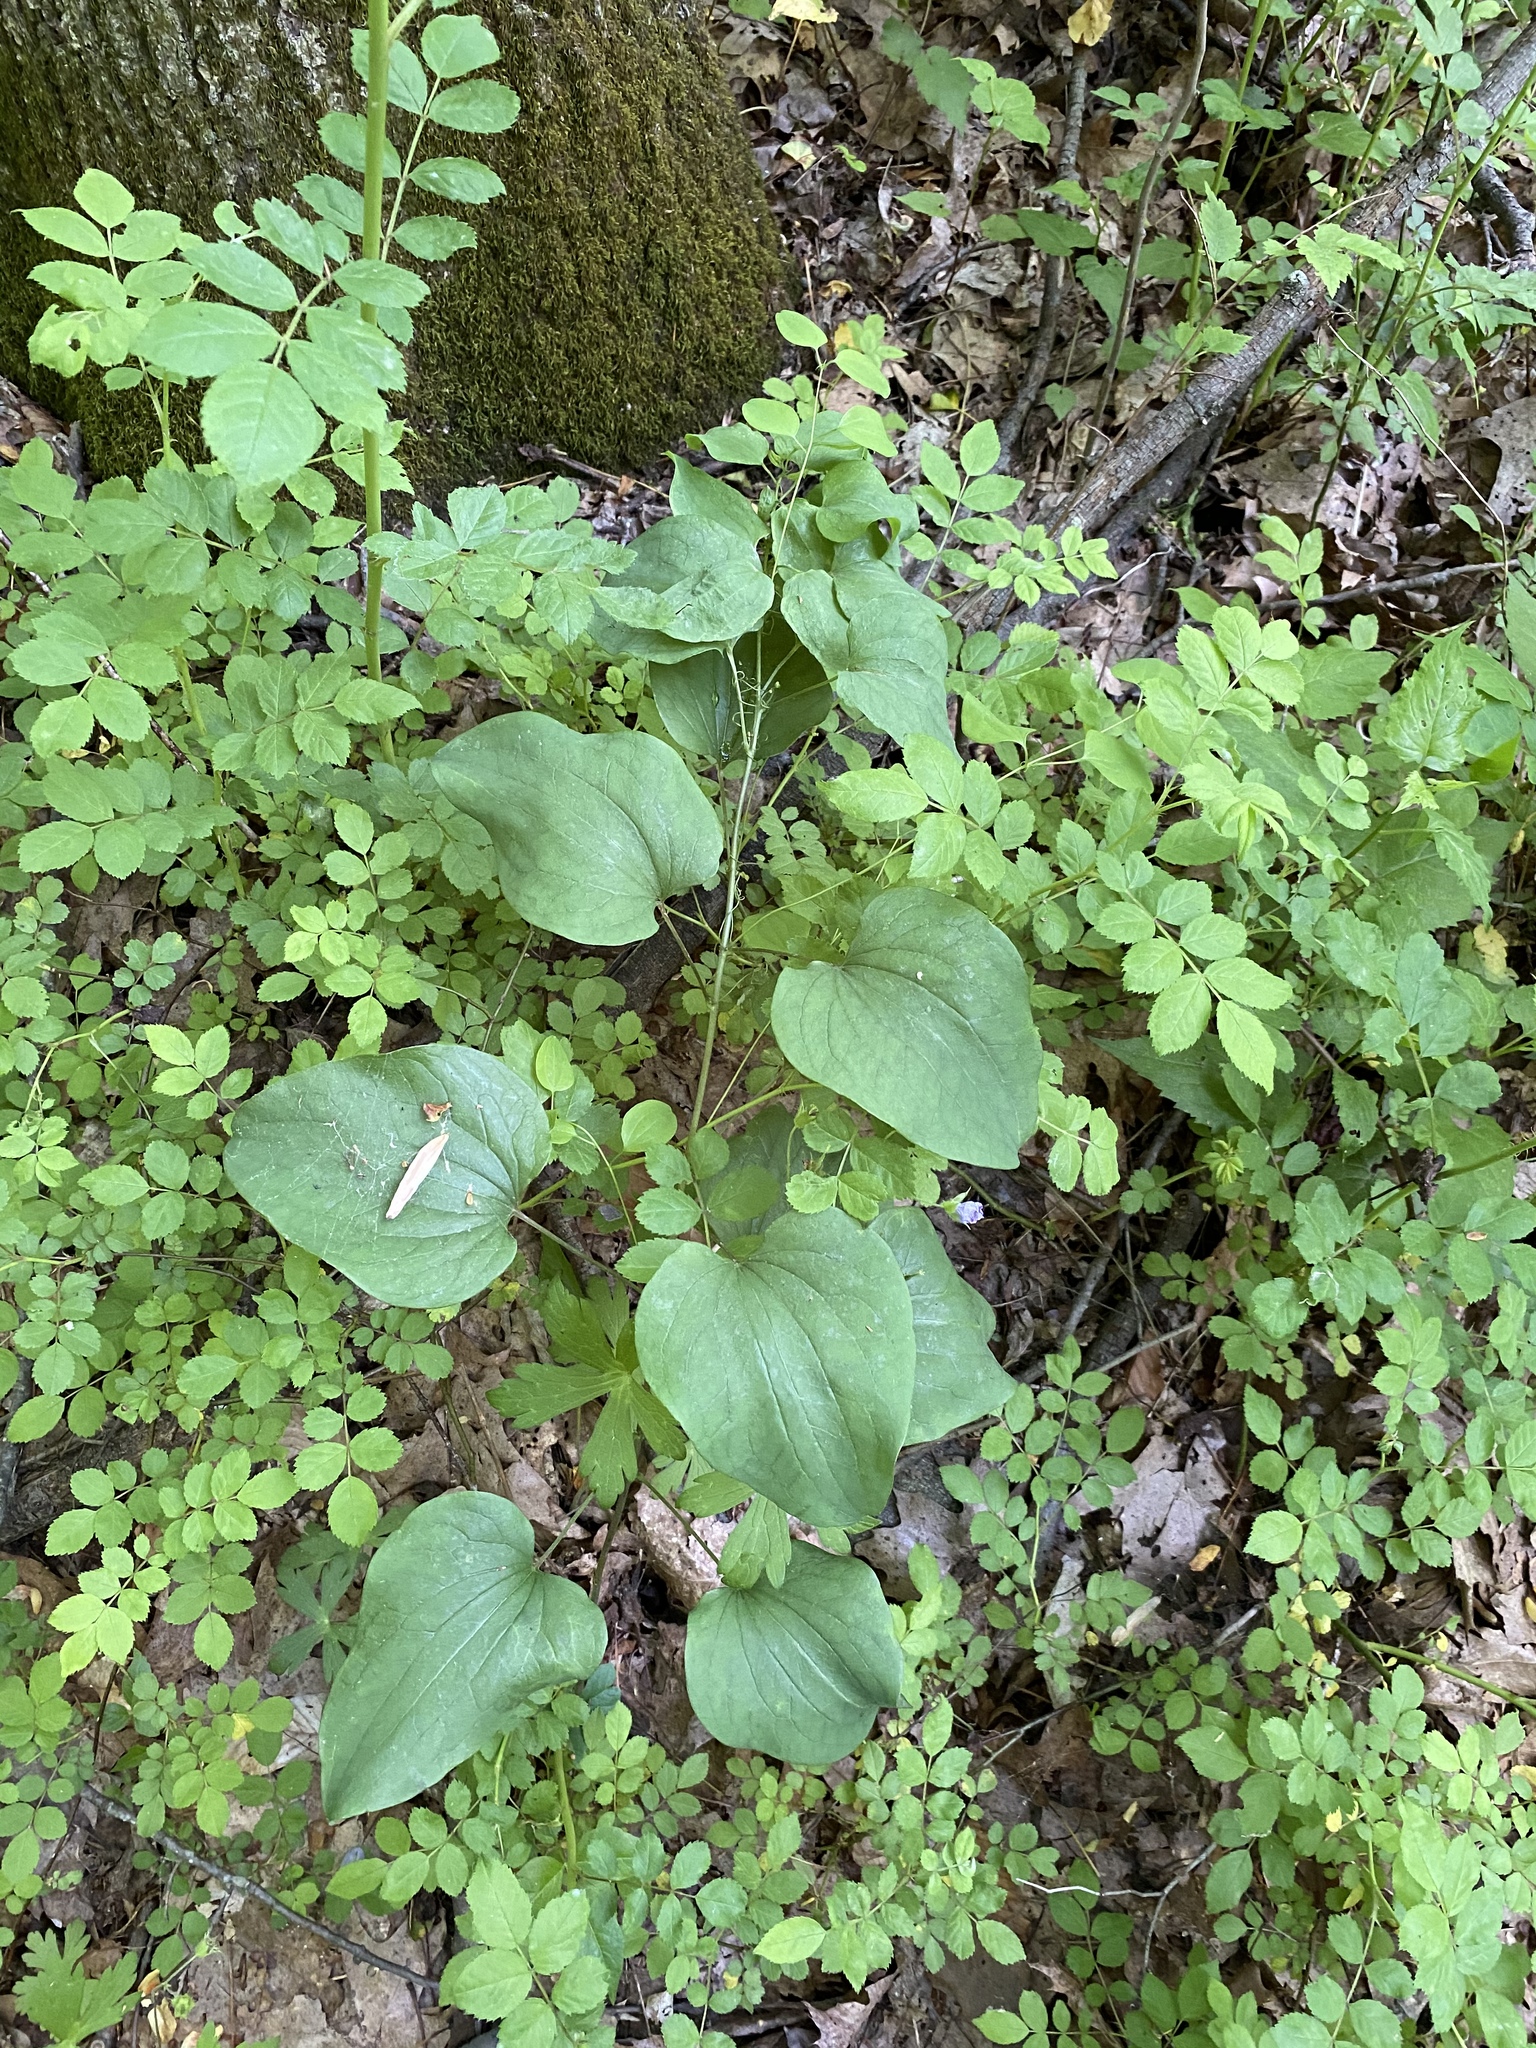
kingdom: Plantae
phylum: Tracheophyta
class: Liliopsida
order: Liliales
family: Smilacaceae
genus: Smilax
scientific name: Smilax herbacea
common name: Jacob's-ladder
